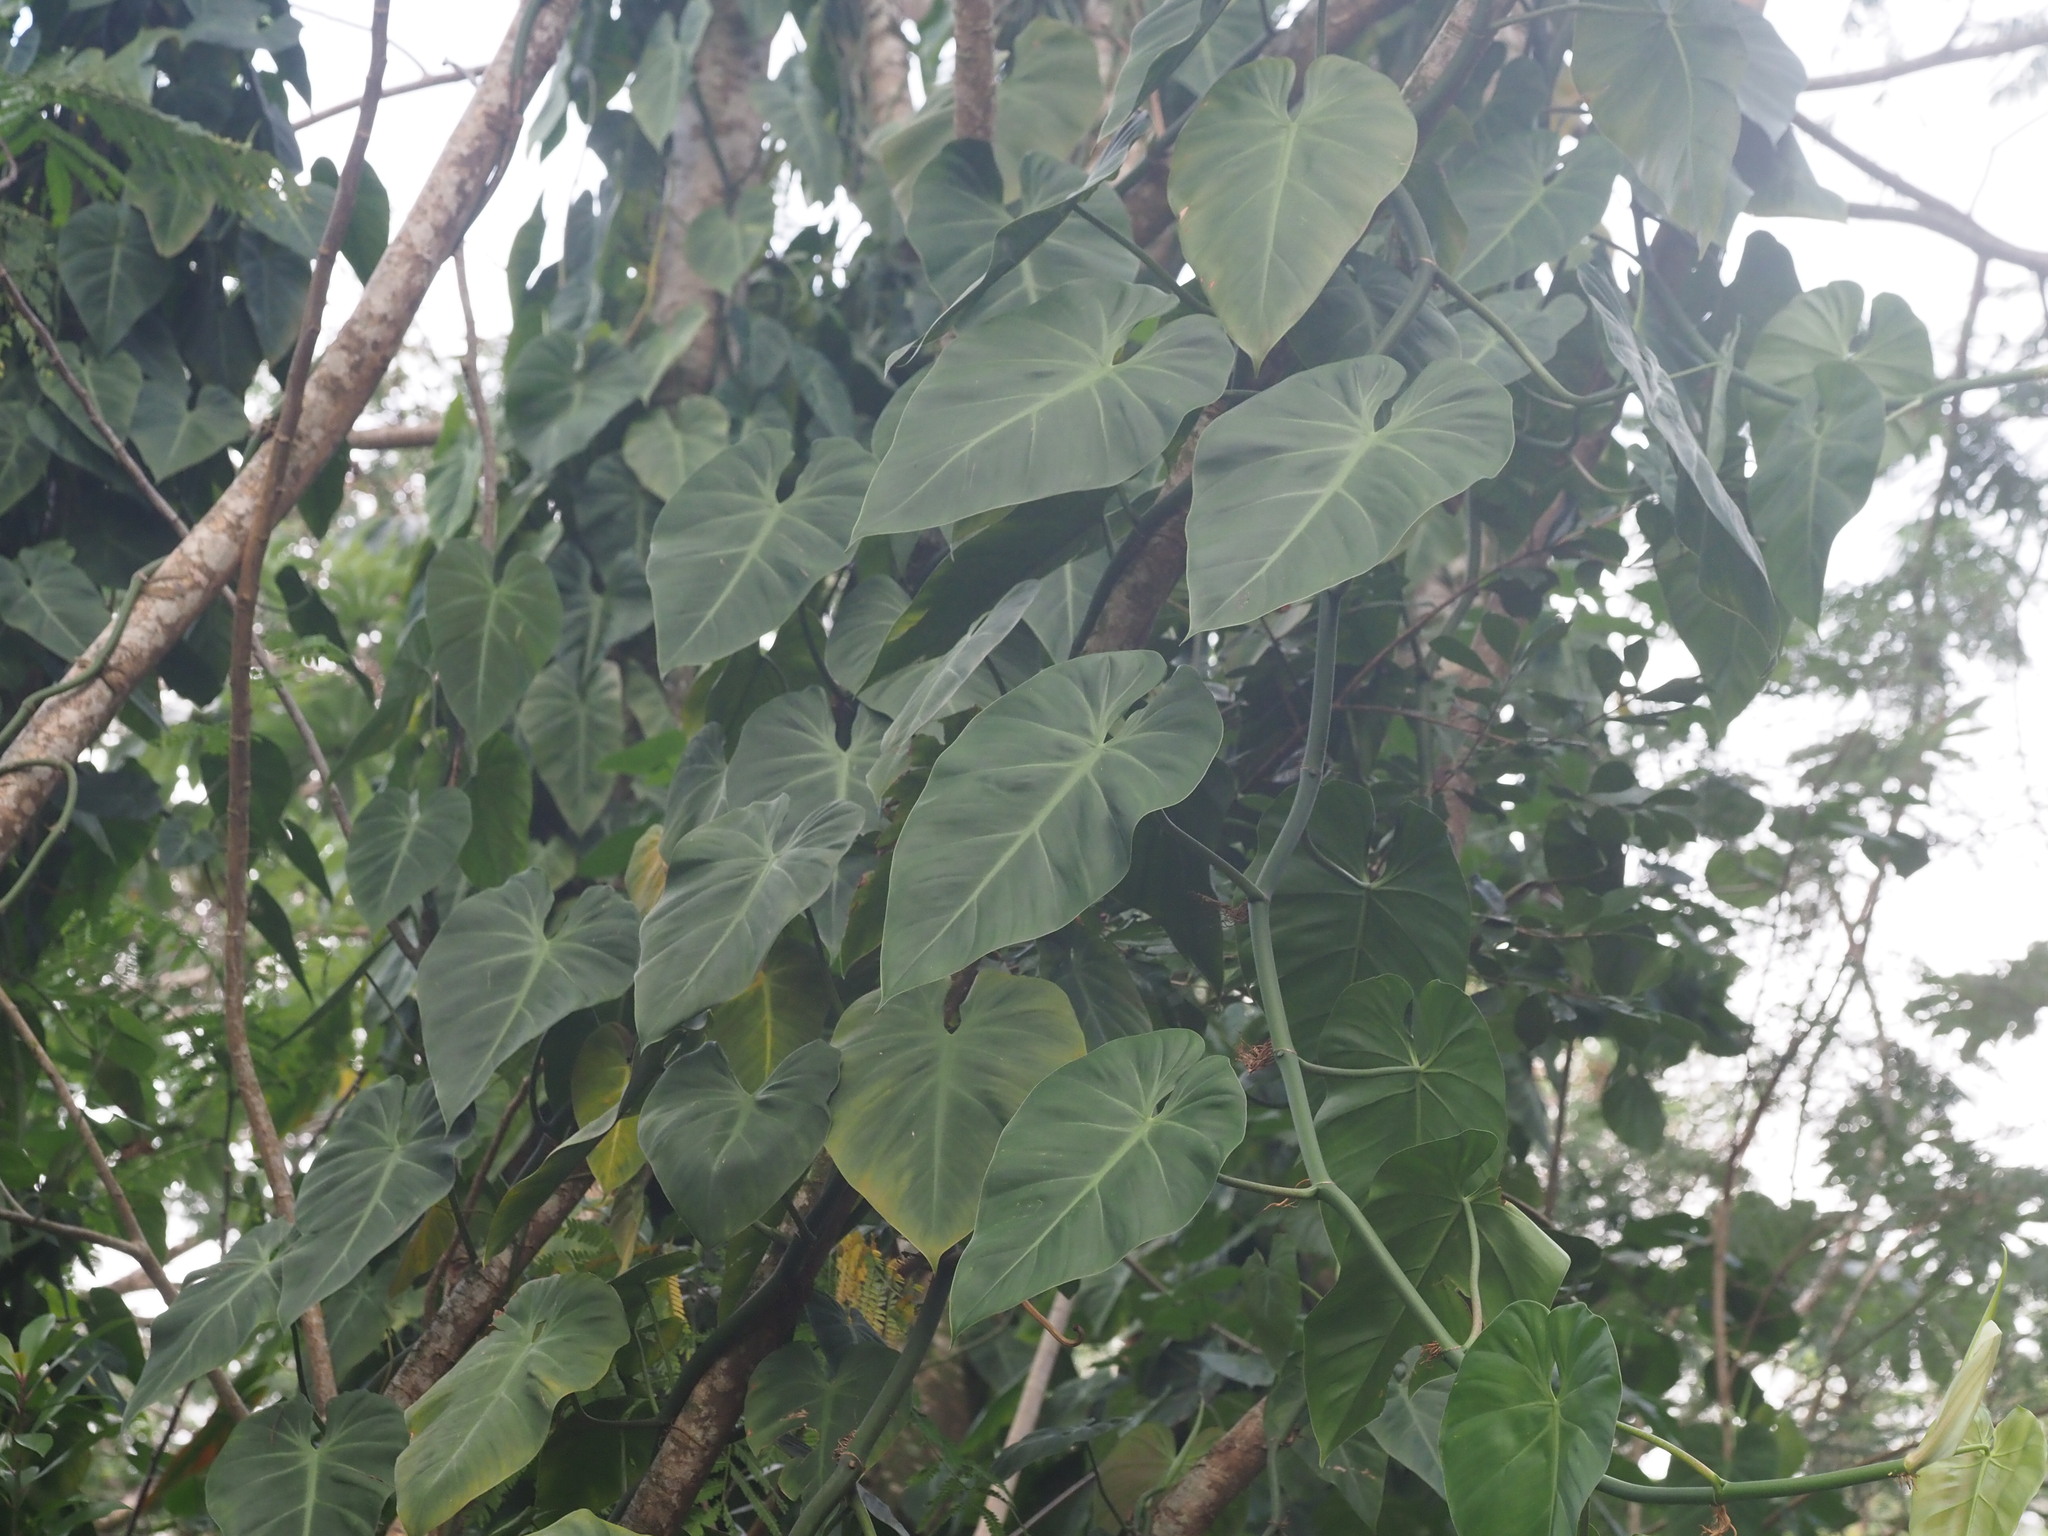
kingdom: Plantae
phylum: Tracheophyta
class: Liliopsida
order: Alismatales
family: Araceae
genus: Philodendron
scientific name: Philodendron hederaceum
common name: Vilevine
